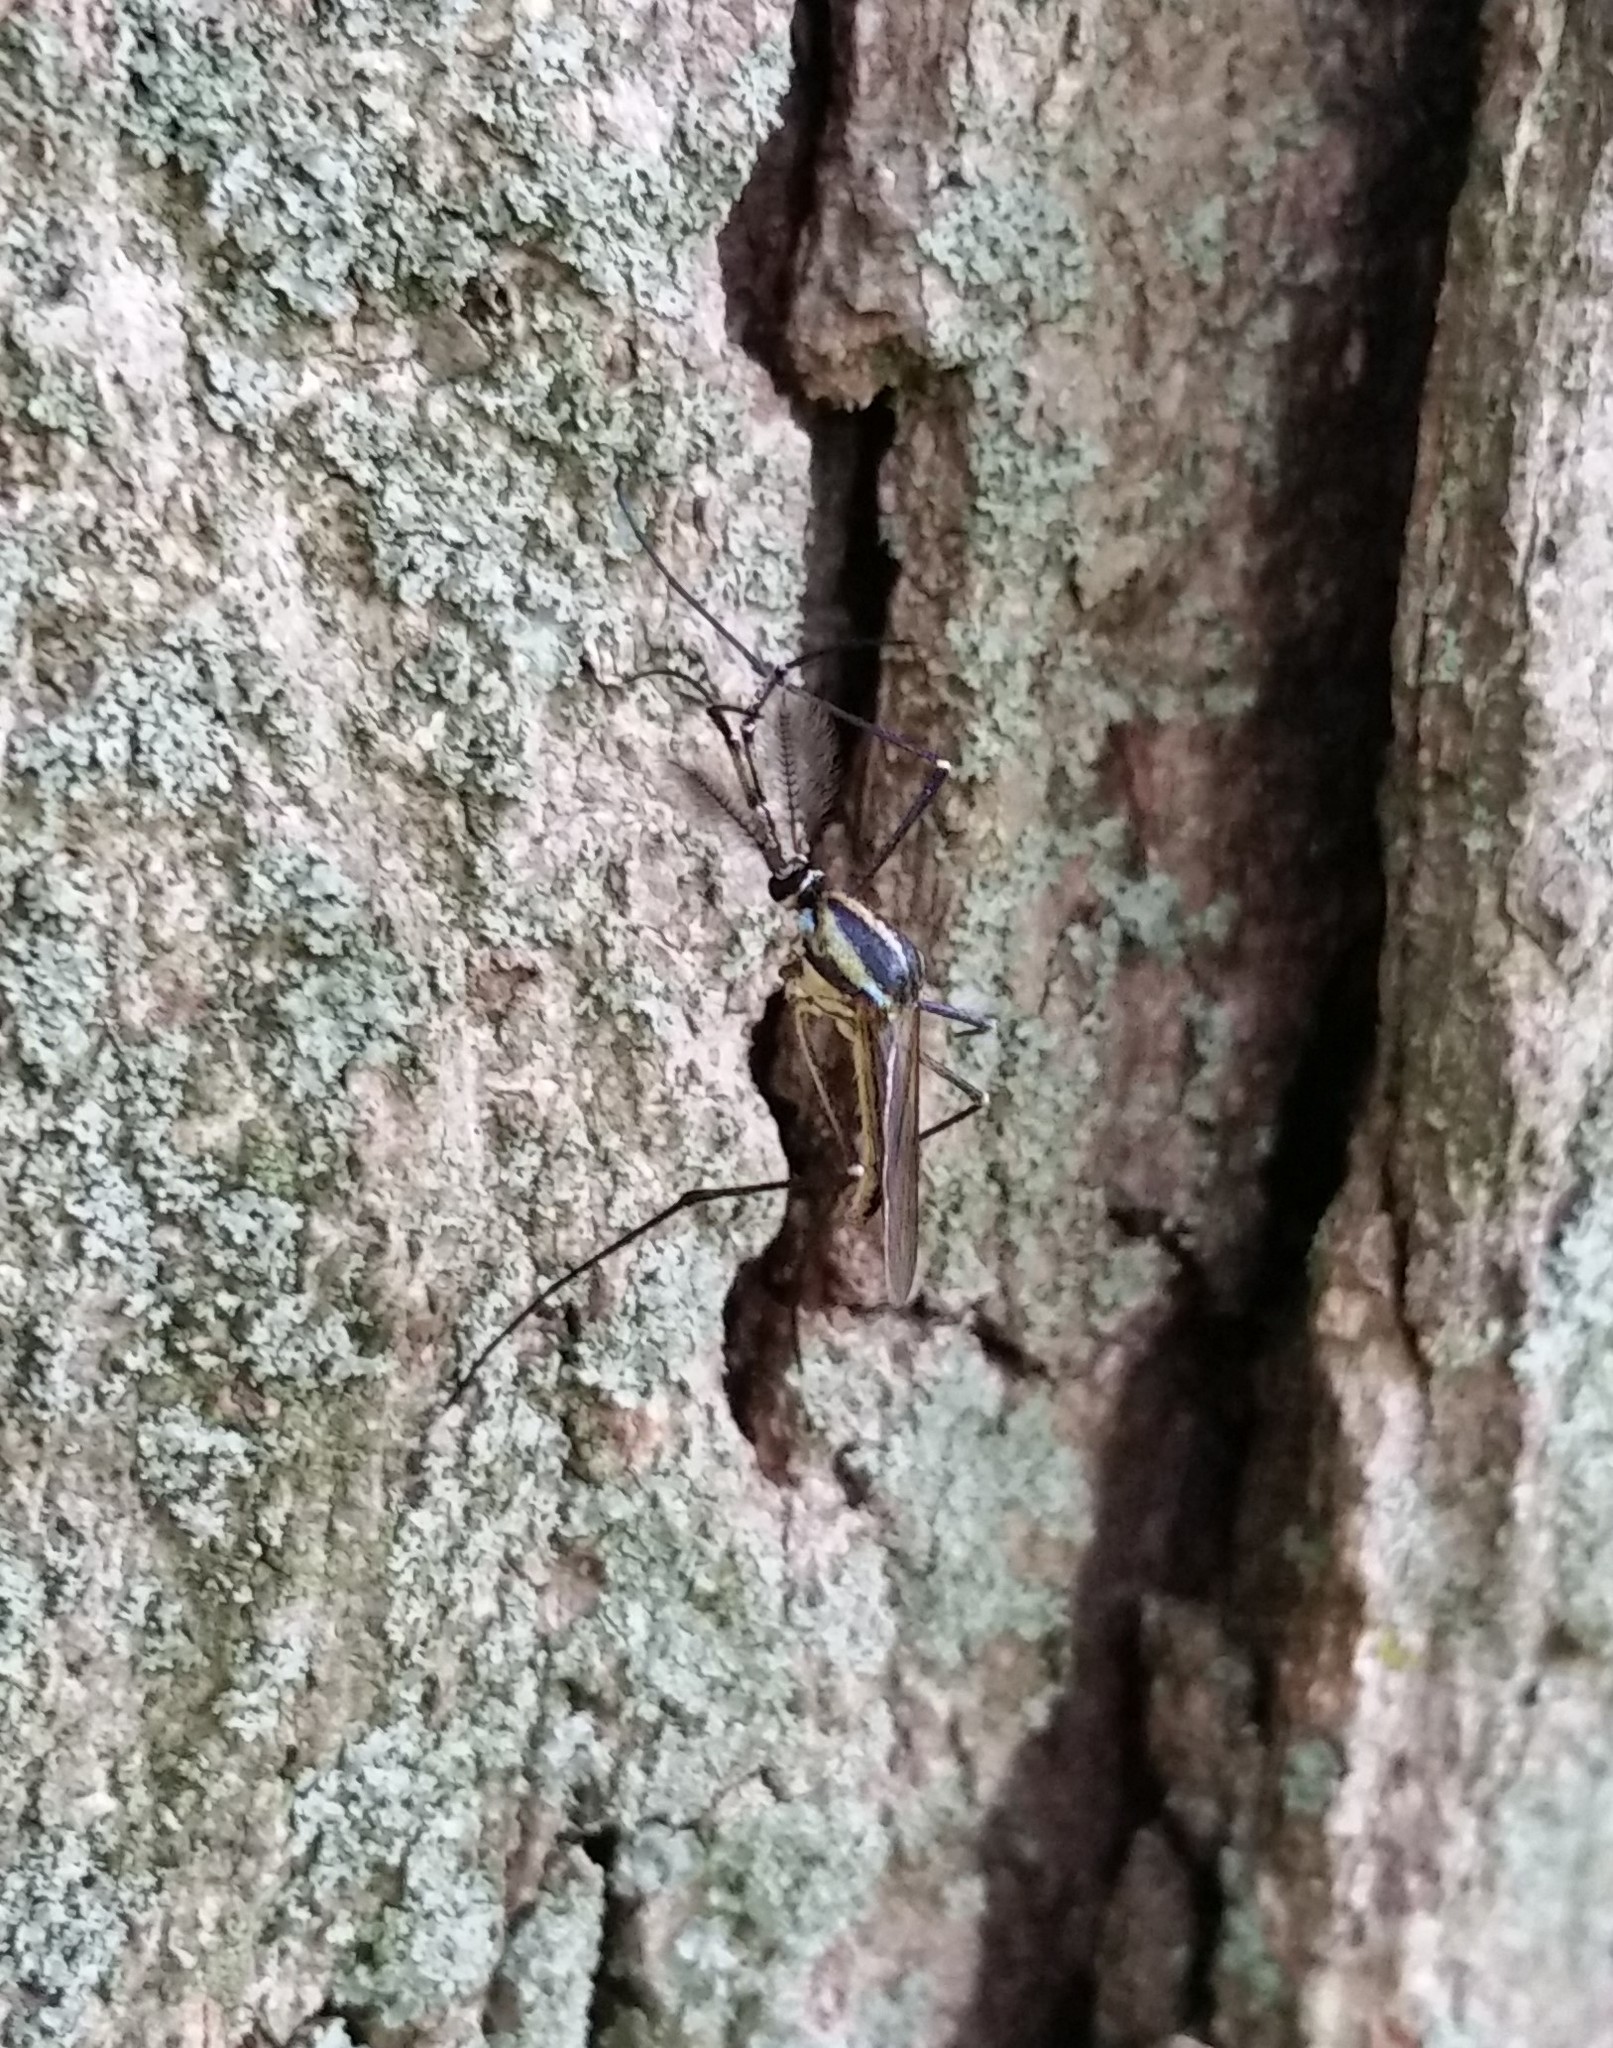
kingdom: Animalia
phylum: Arthropoda
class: Insecta
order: Diptera
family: Culicidae
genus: Toxorhynchites
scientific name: Toxorhynchites rutilus
